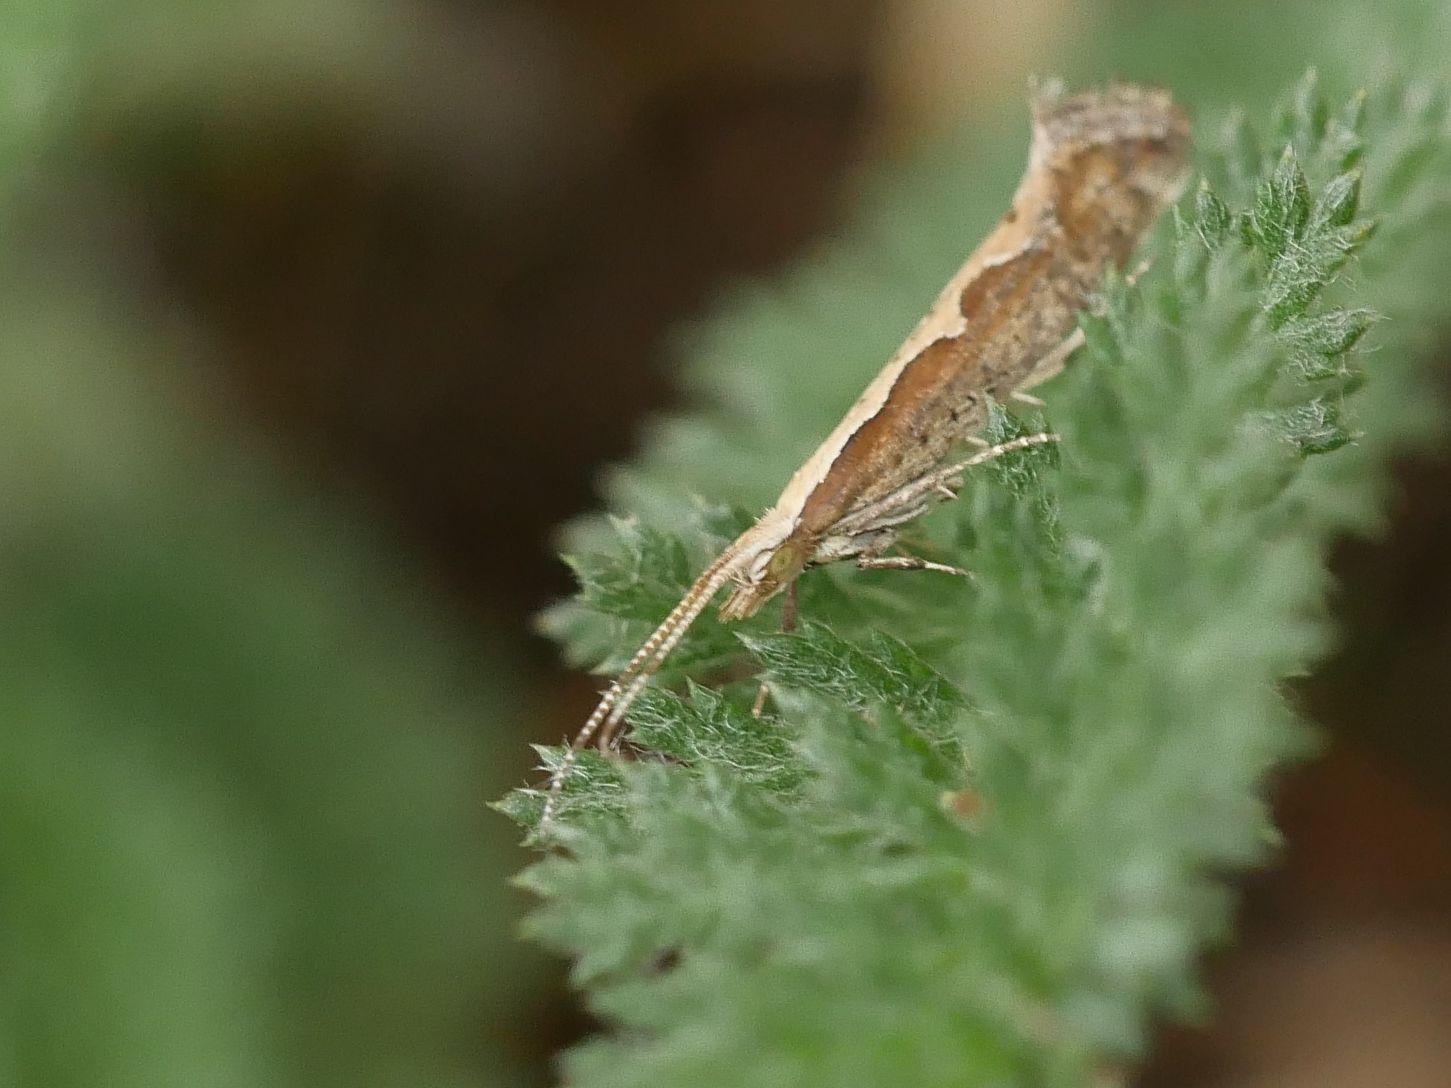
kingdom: Animalia
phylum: Arthropoda
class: Insecta
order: Lepidoptera
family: Plutellidae
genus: Plutella
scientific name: Plutella xylostella
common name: Diamond-back moth
